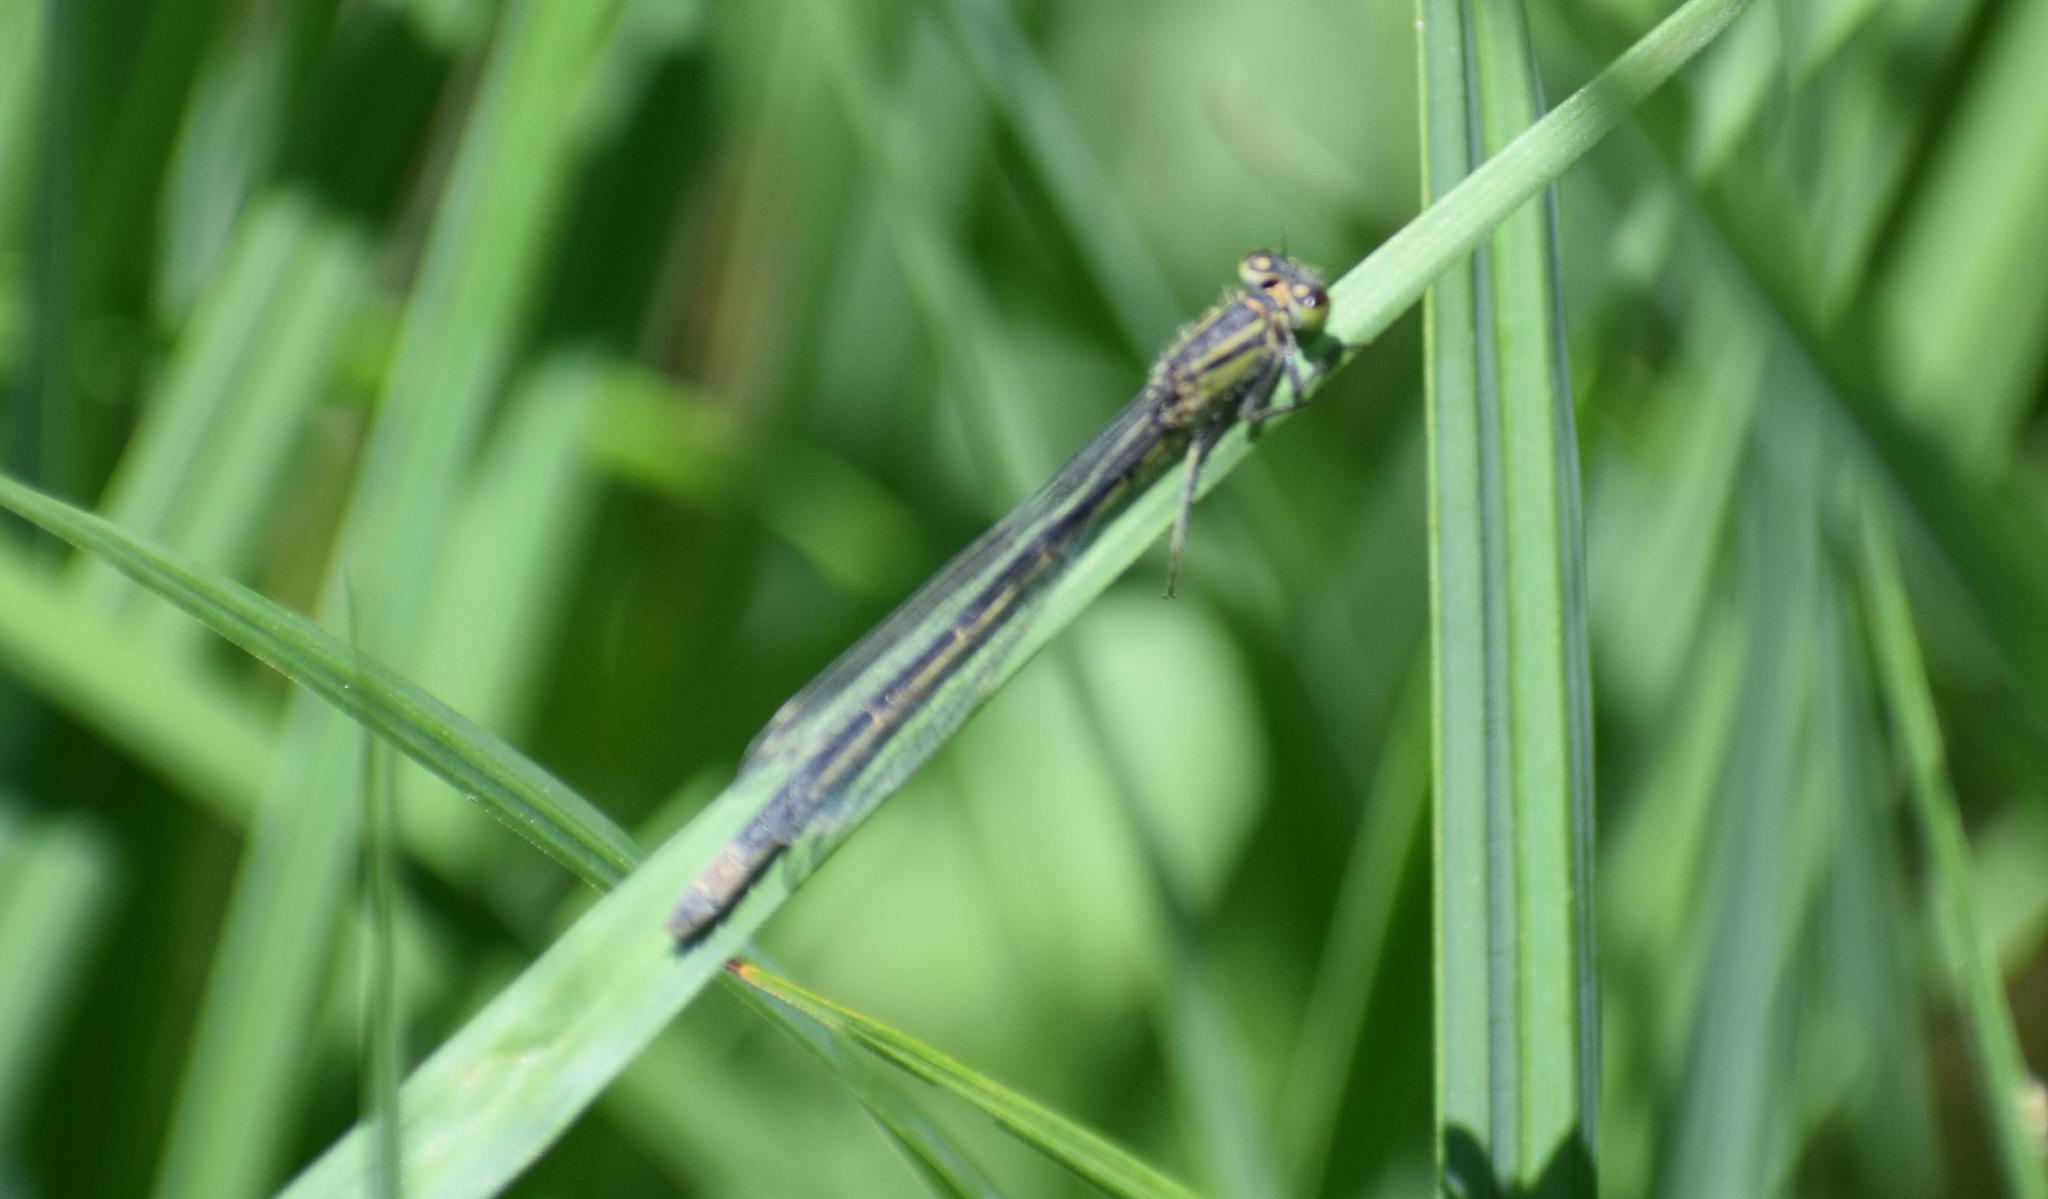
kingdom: Animalia
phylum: Arthropoda
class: Insecta
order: Odonata
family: Coenagrionidae
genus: Ischnura
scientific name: Ischnura elegans
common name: Blue-tailed damselfly
